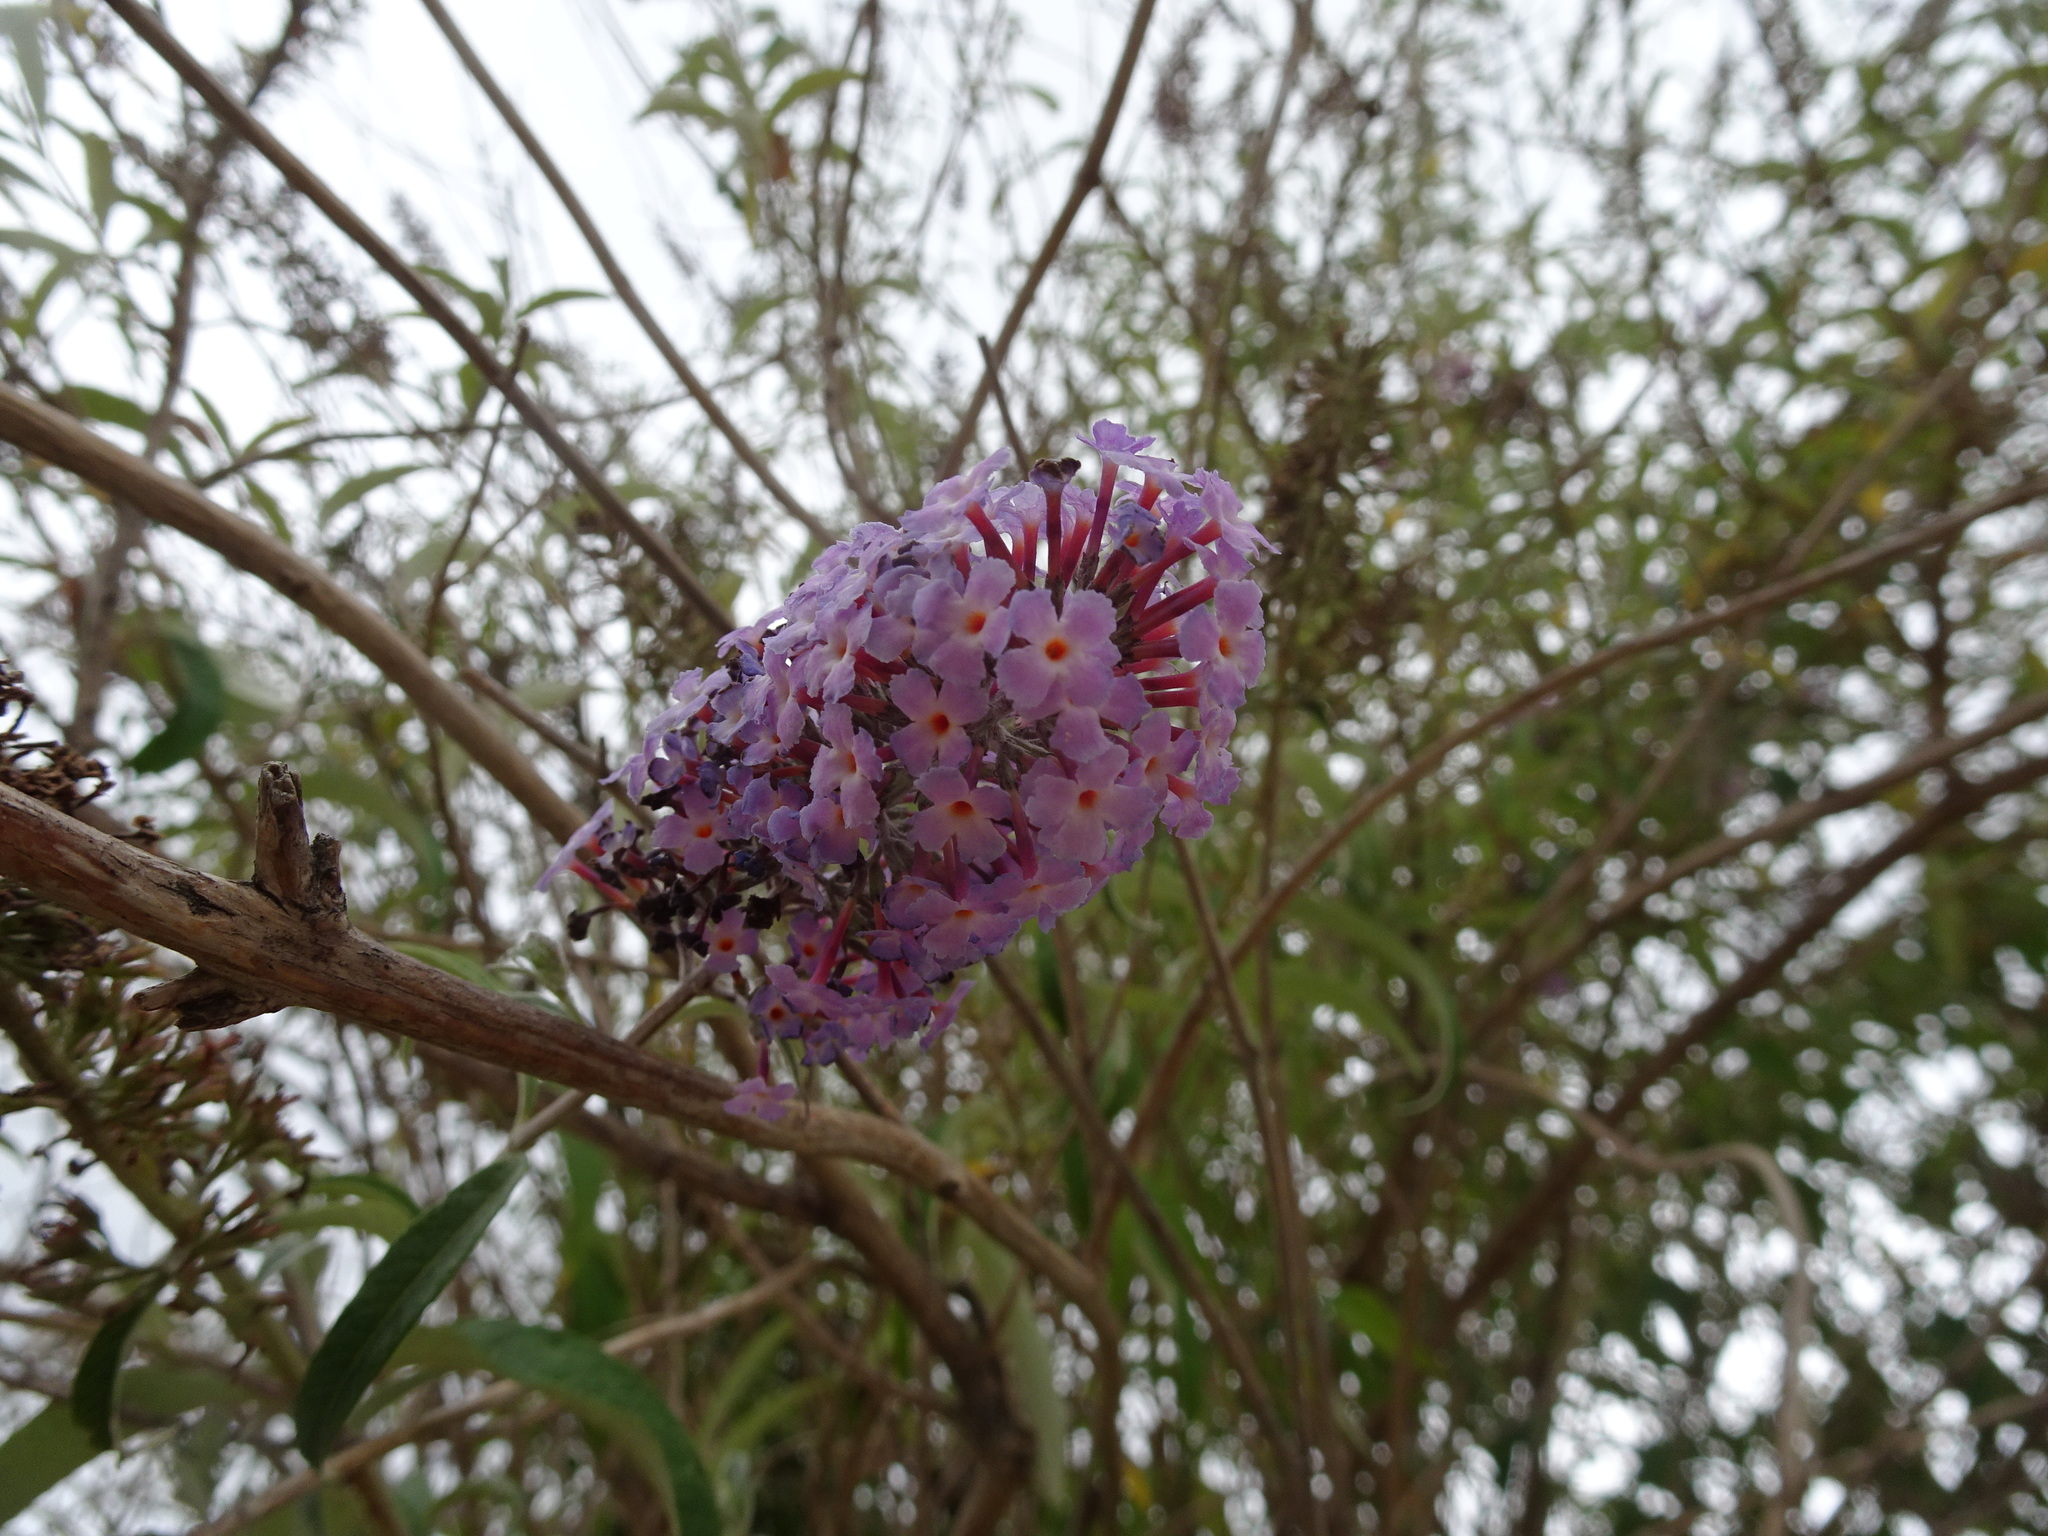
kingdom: Plantae
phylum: Tracheophyta
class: Magnoliopsida
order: Lamiales
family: Scrophulariaceae
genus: Buddleja
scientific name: Buddleja davidii
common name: Butterfly-bush
